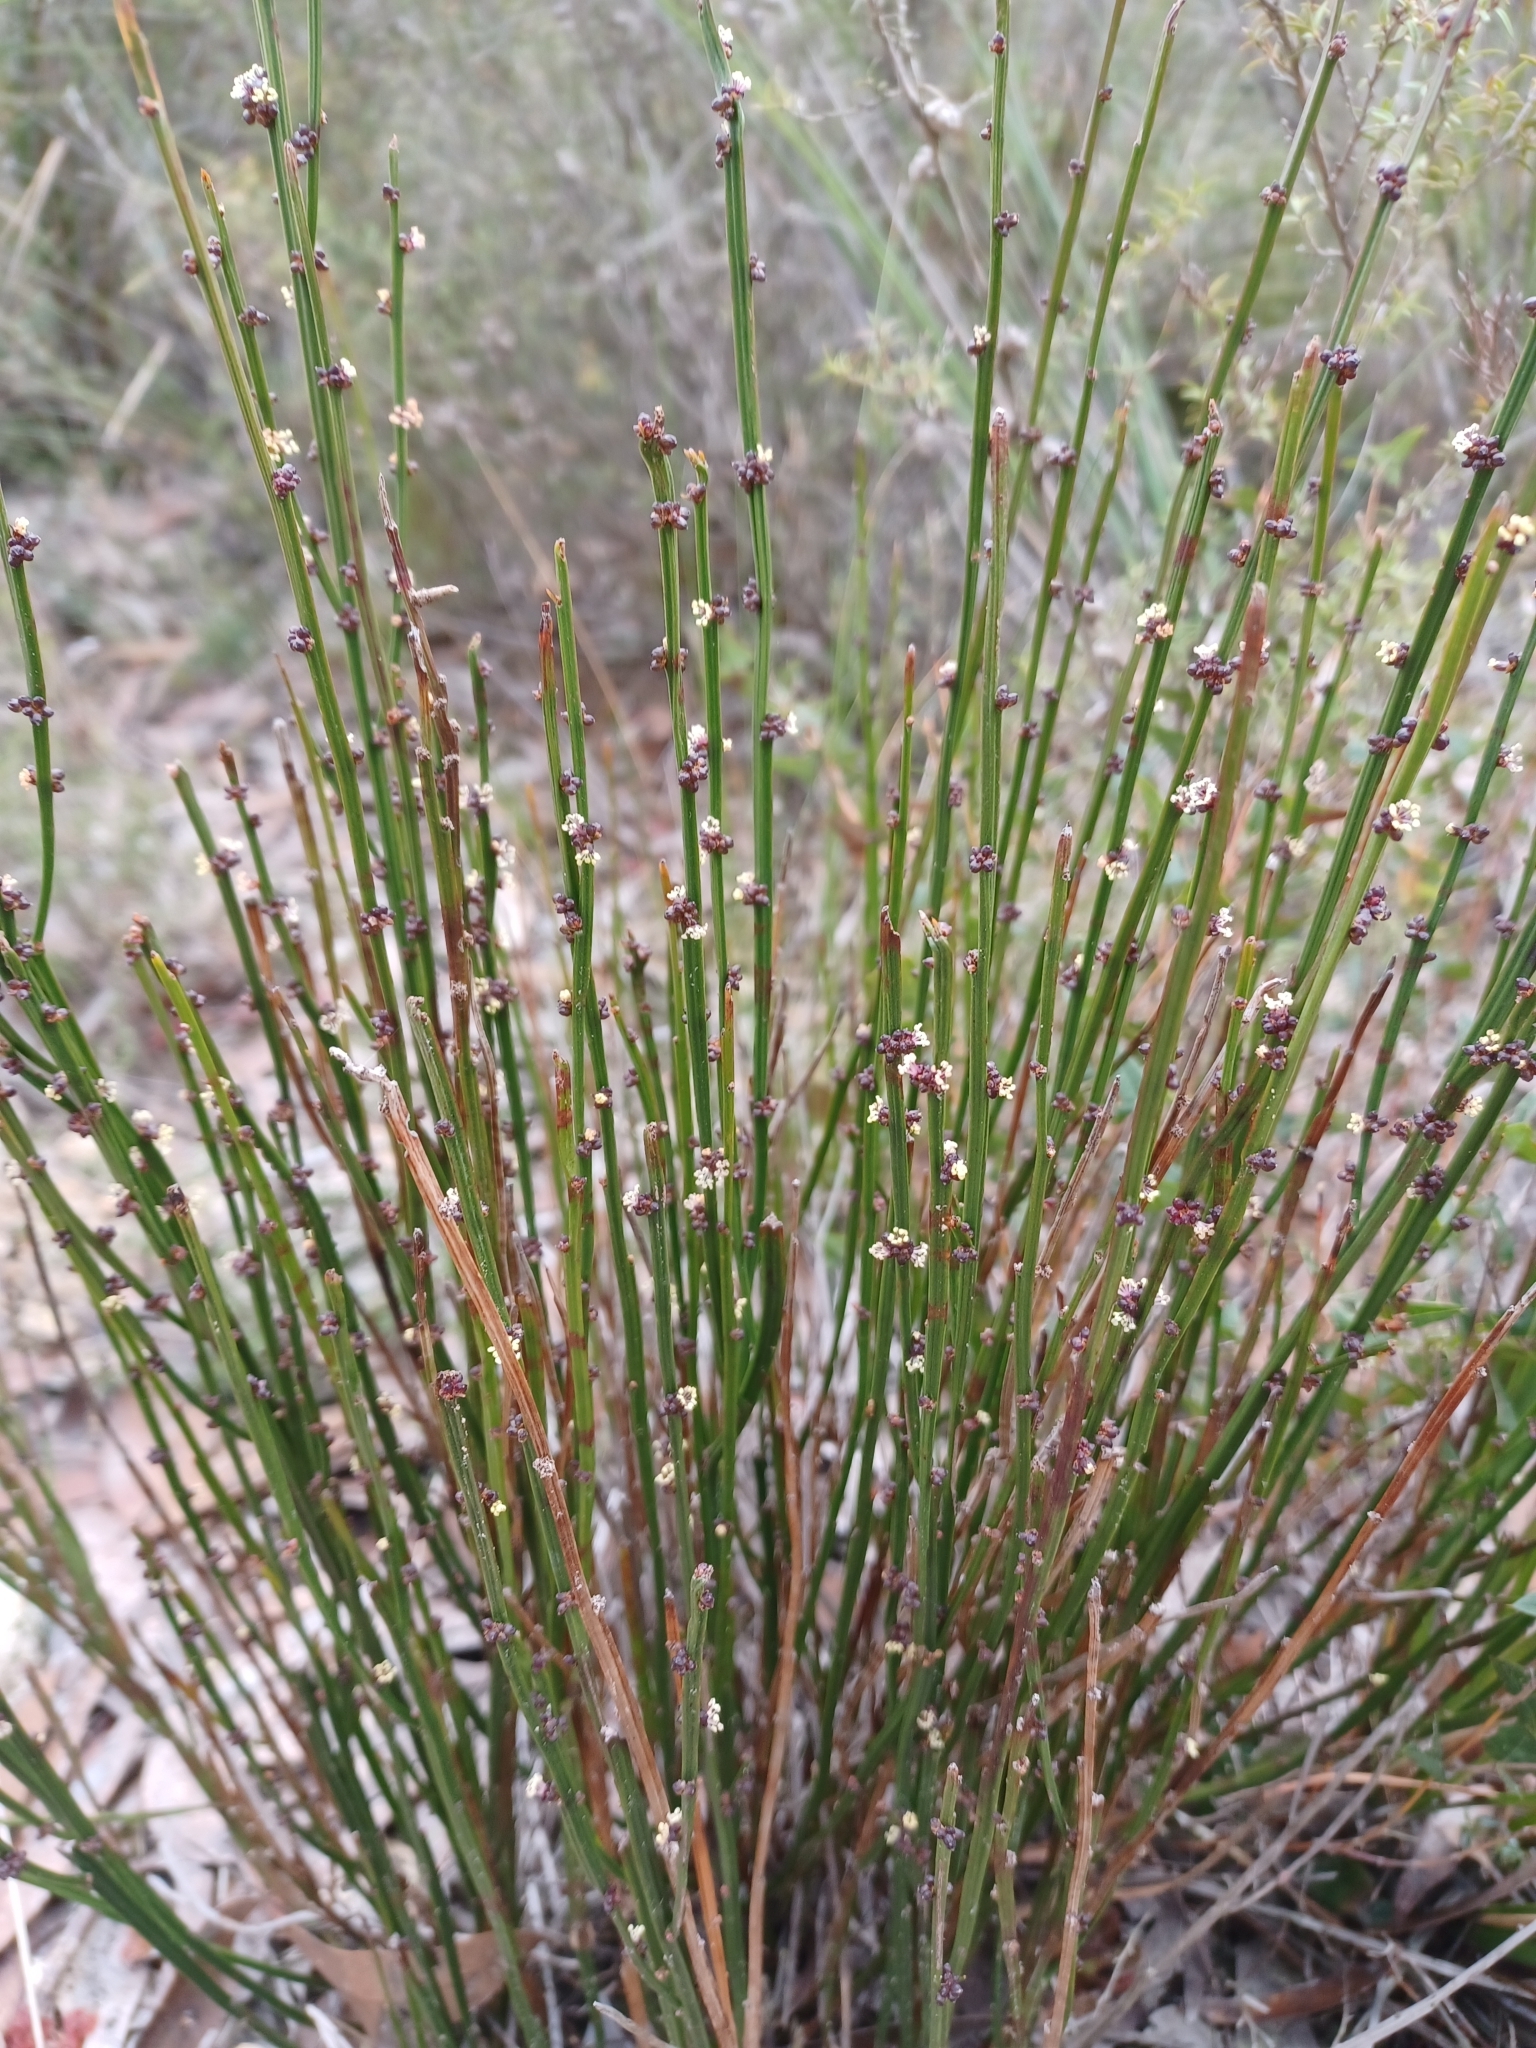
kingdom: Plantae
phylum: Tracheophyta
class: Magnoliopsida
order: Malpighiales
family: Euphorbiaceae
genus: Amperea
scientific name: Amperea xiphoclada
